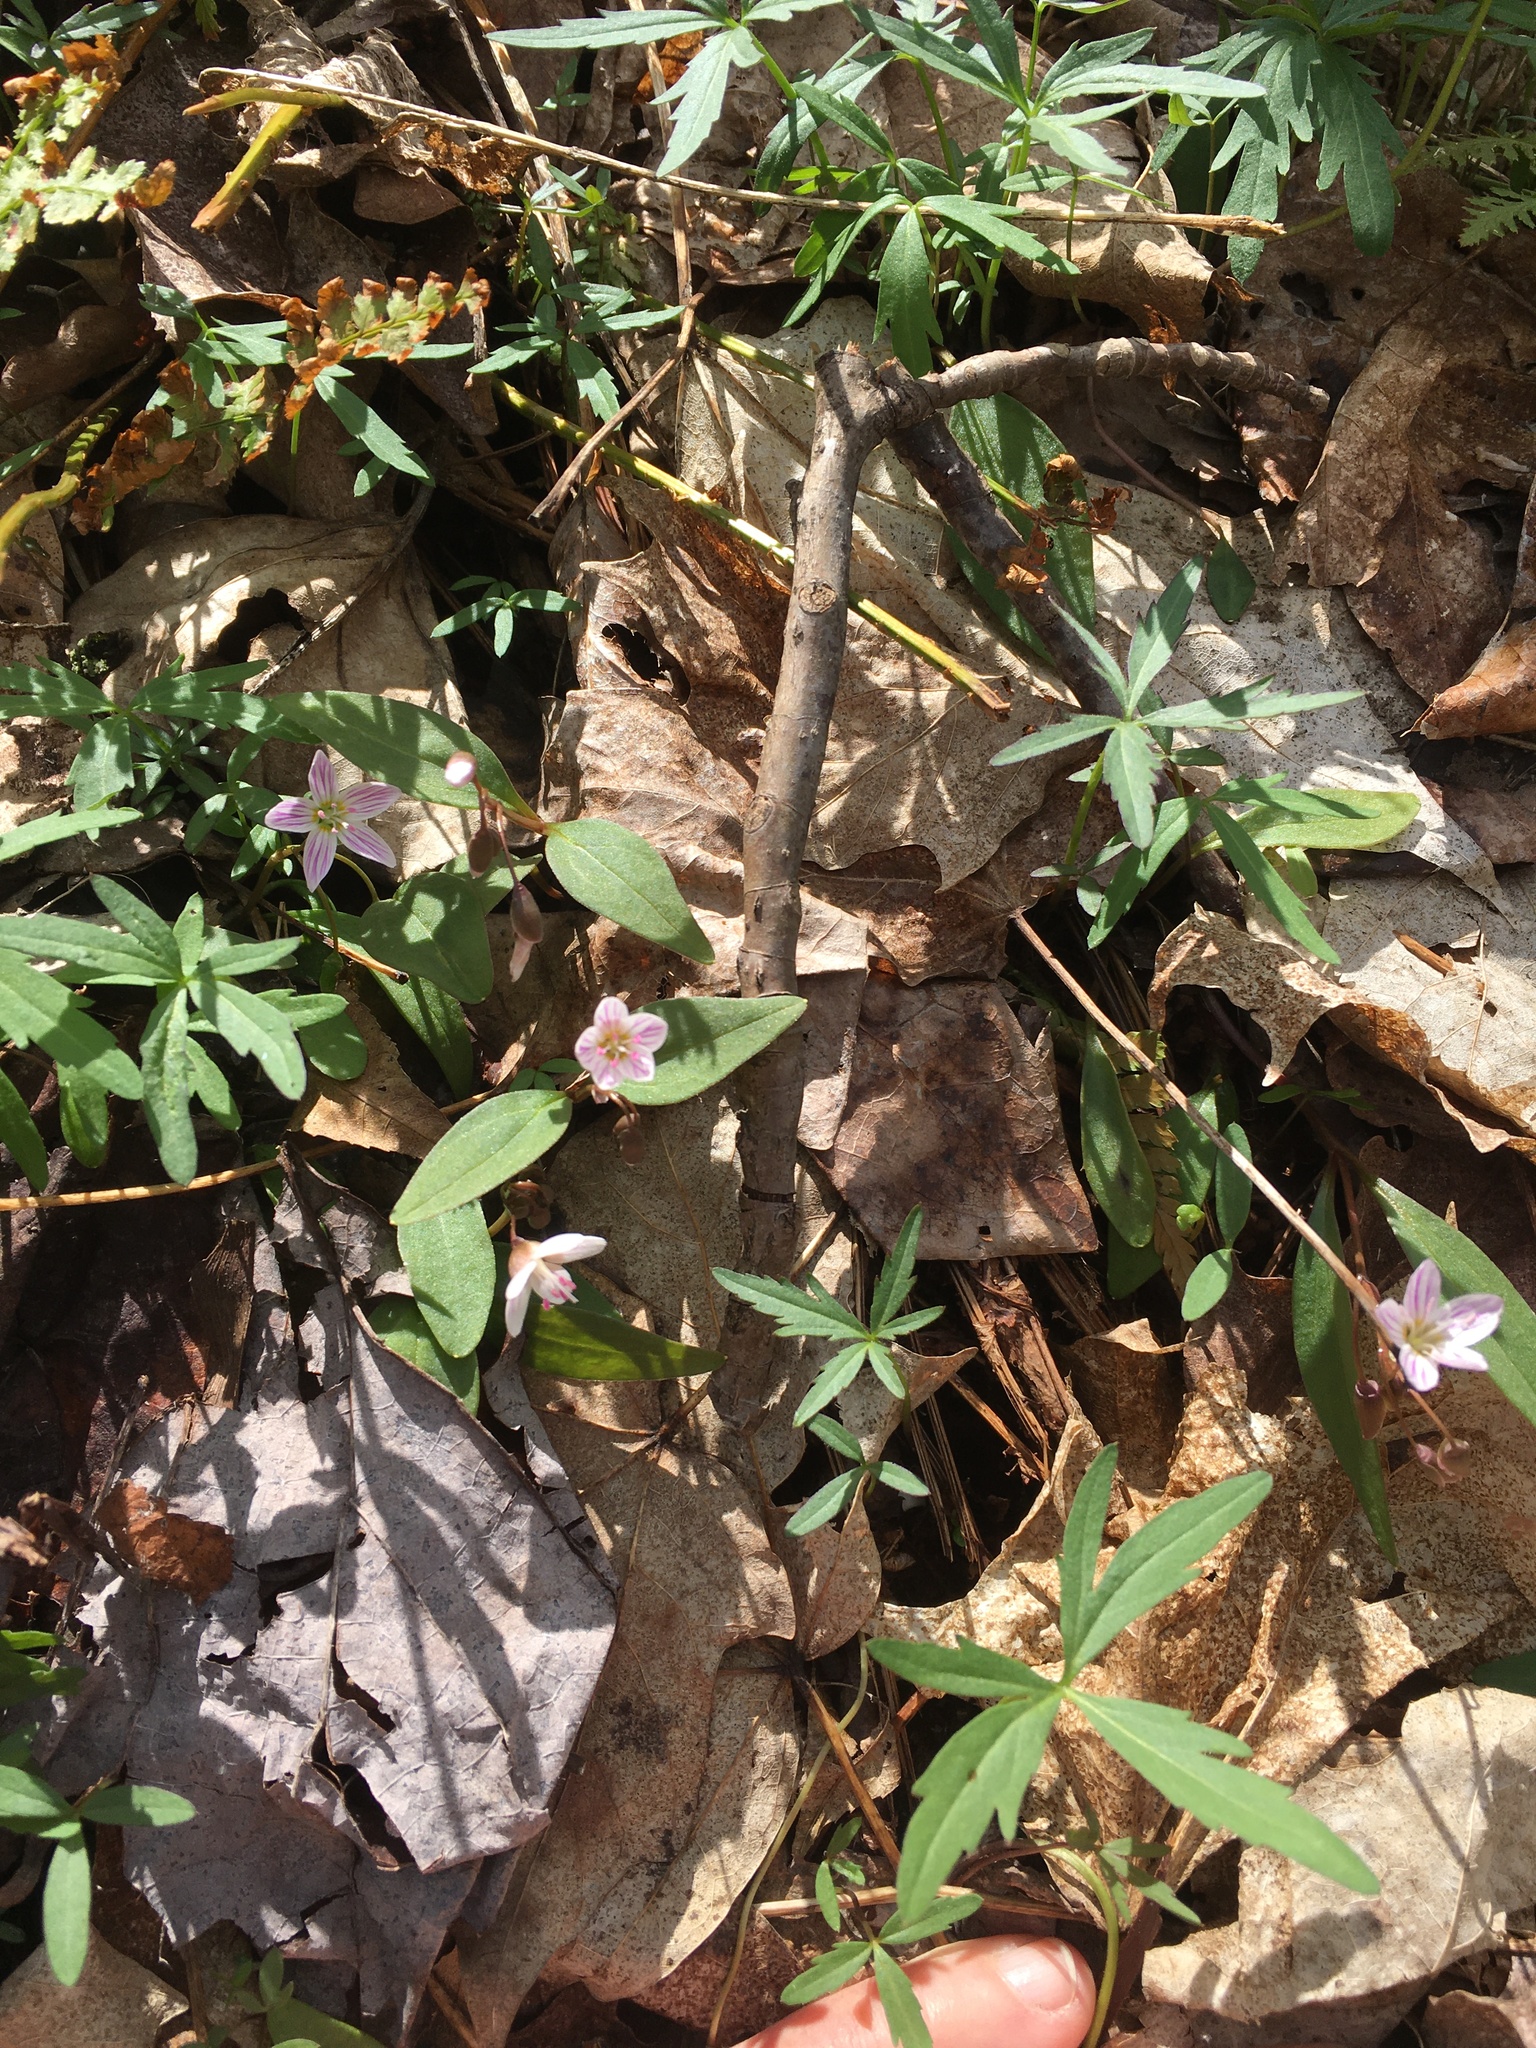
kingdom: Plantae
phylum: Tracheophyta
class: Magnoliopsida
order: Caryophyllales
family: Montiaceae
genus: Claytonia
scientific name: Claytonia caroliniana
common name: Carolina spring beauty
